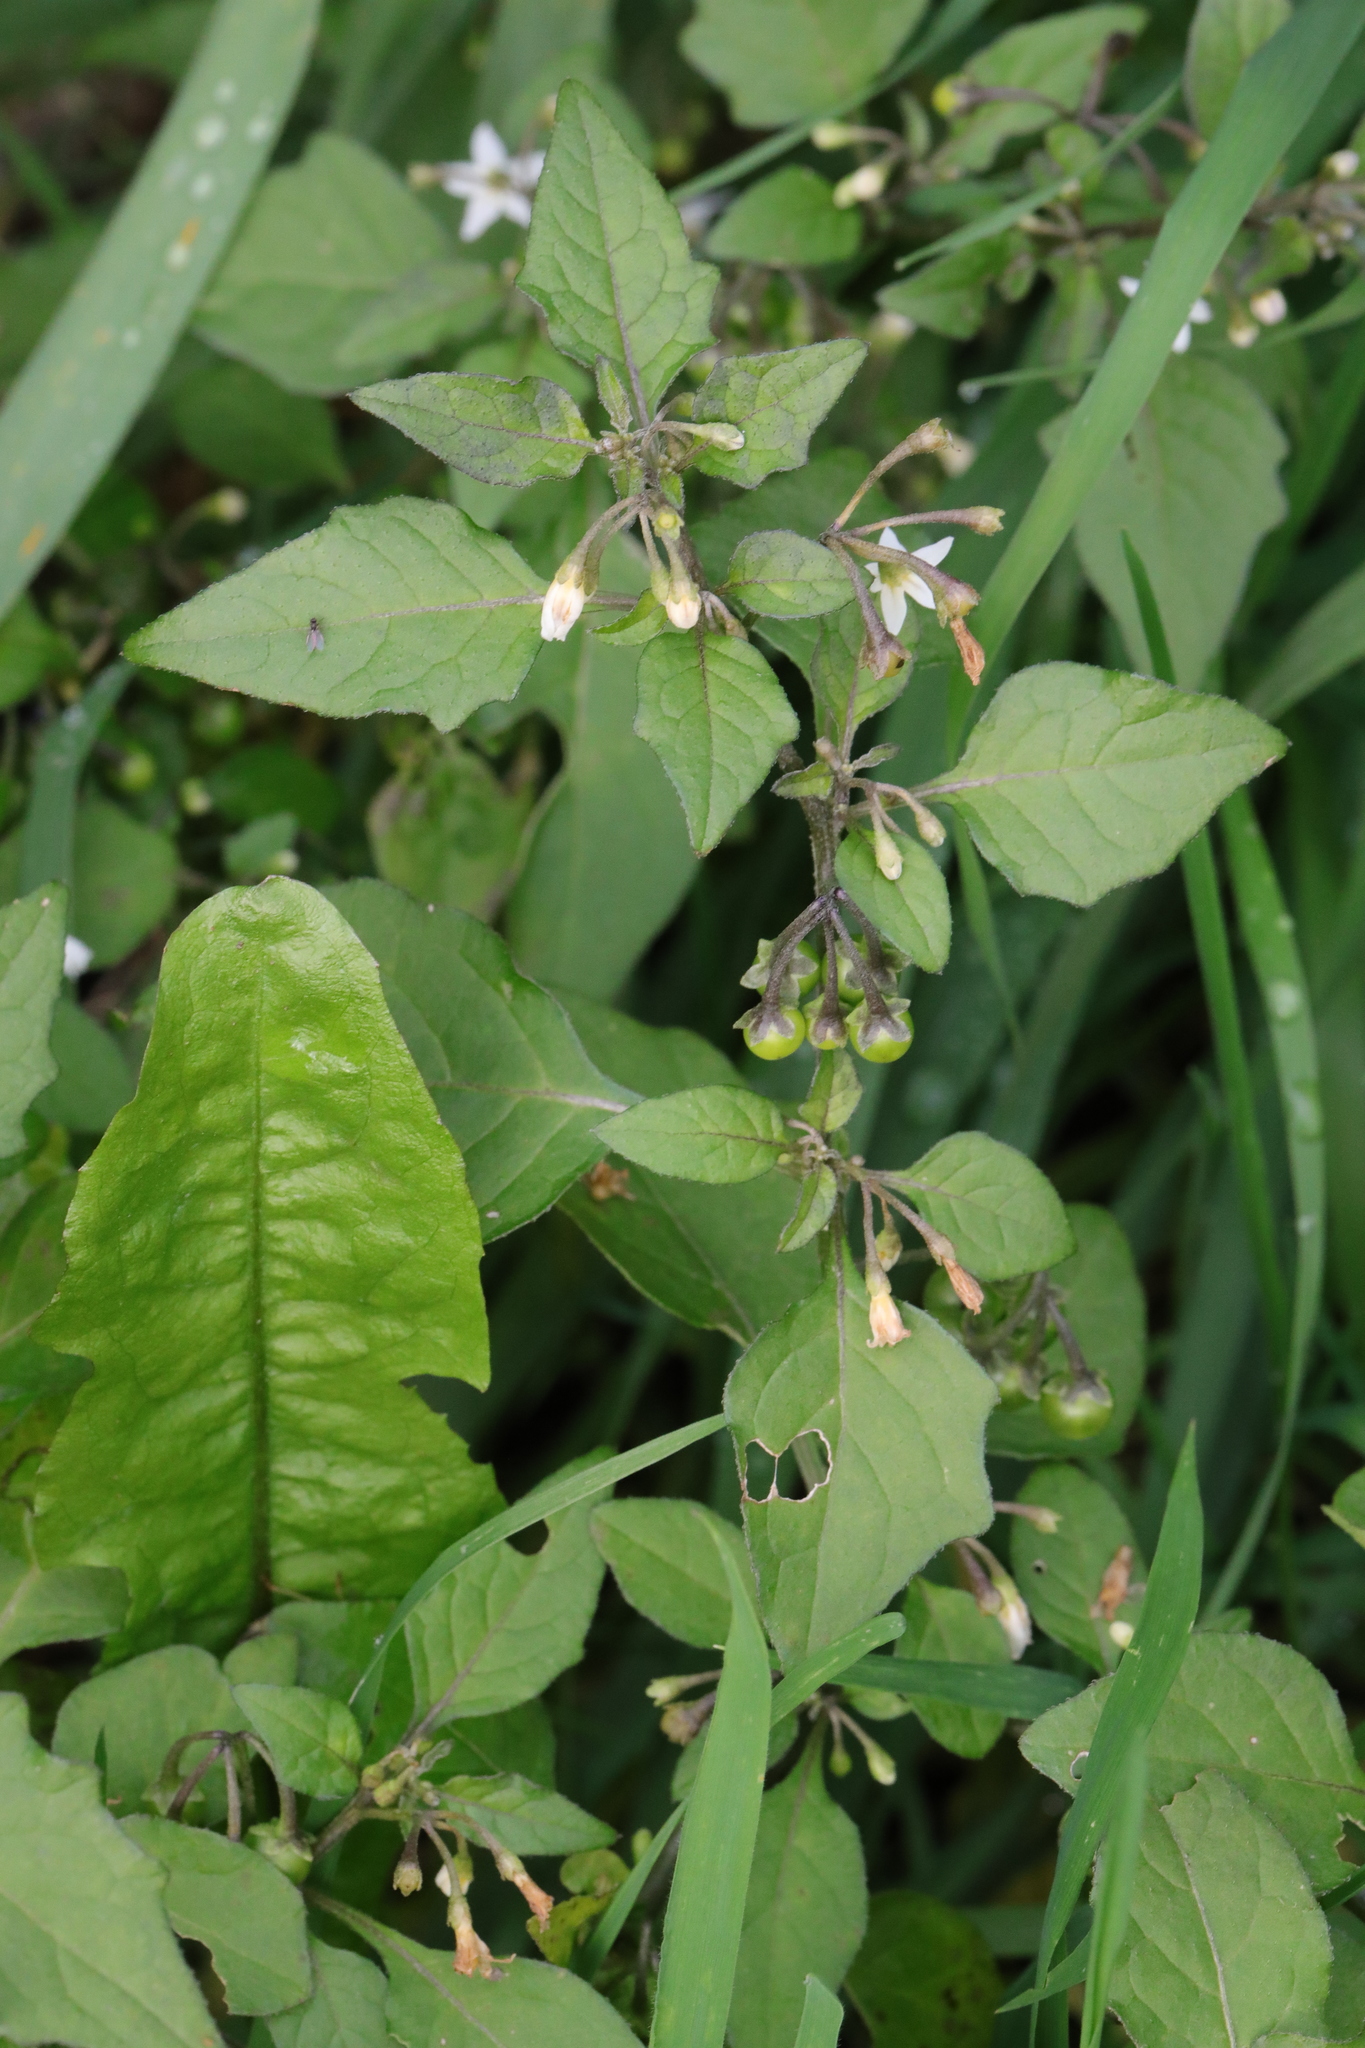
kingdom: Plantae
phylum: Tracheophyta
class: Magnoliopsida
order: Solanales
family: Solanaceae
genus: Solanum
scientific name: Solanum nigrum
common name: Black nightshade
